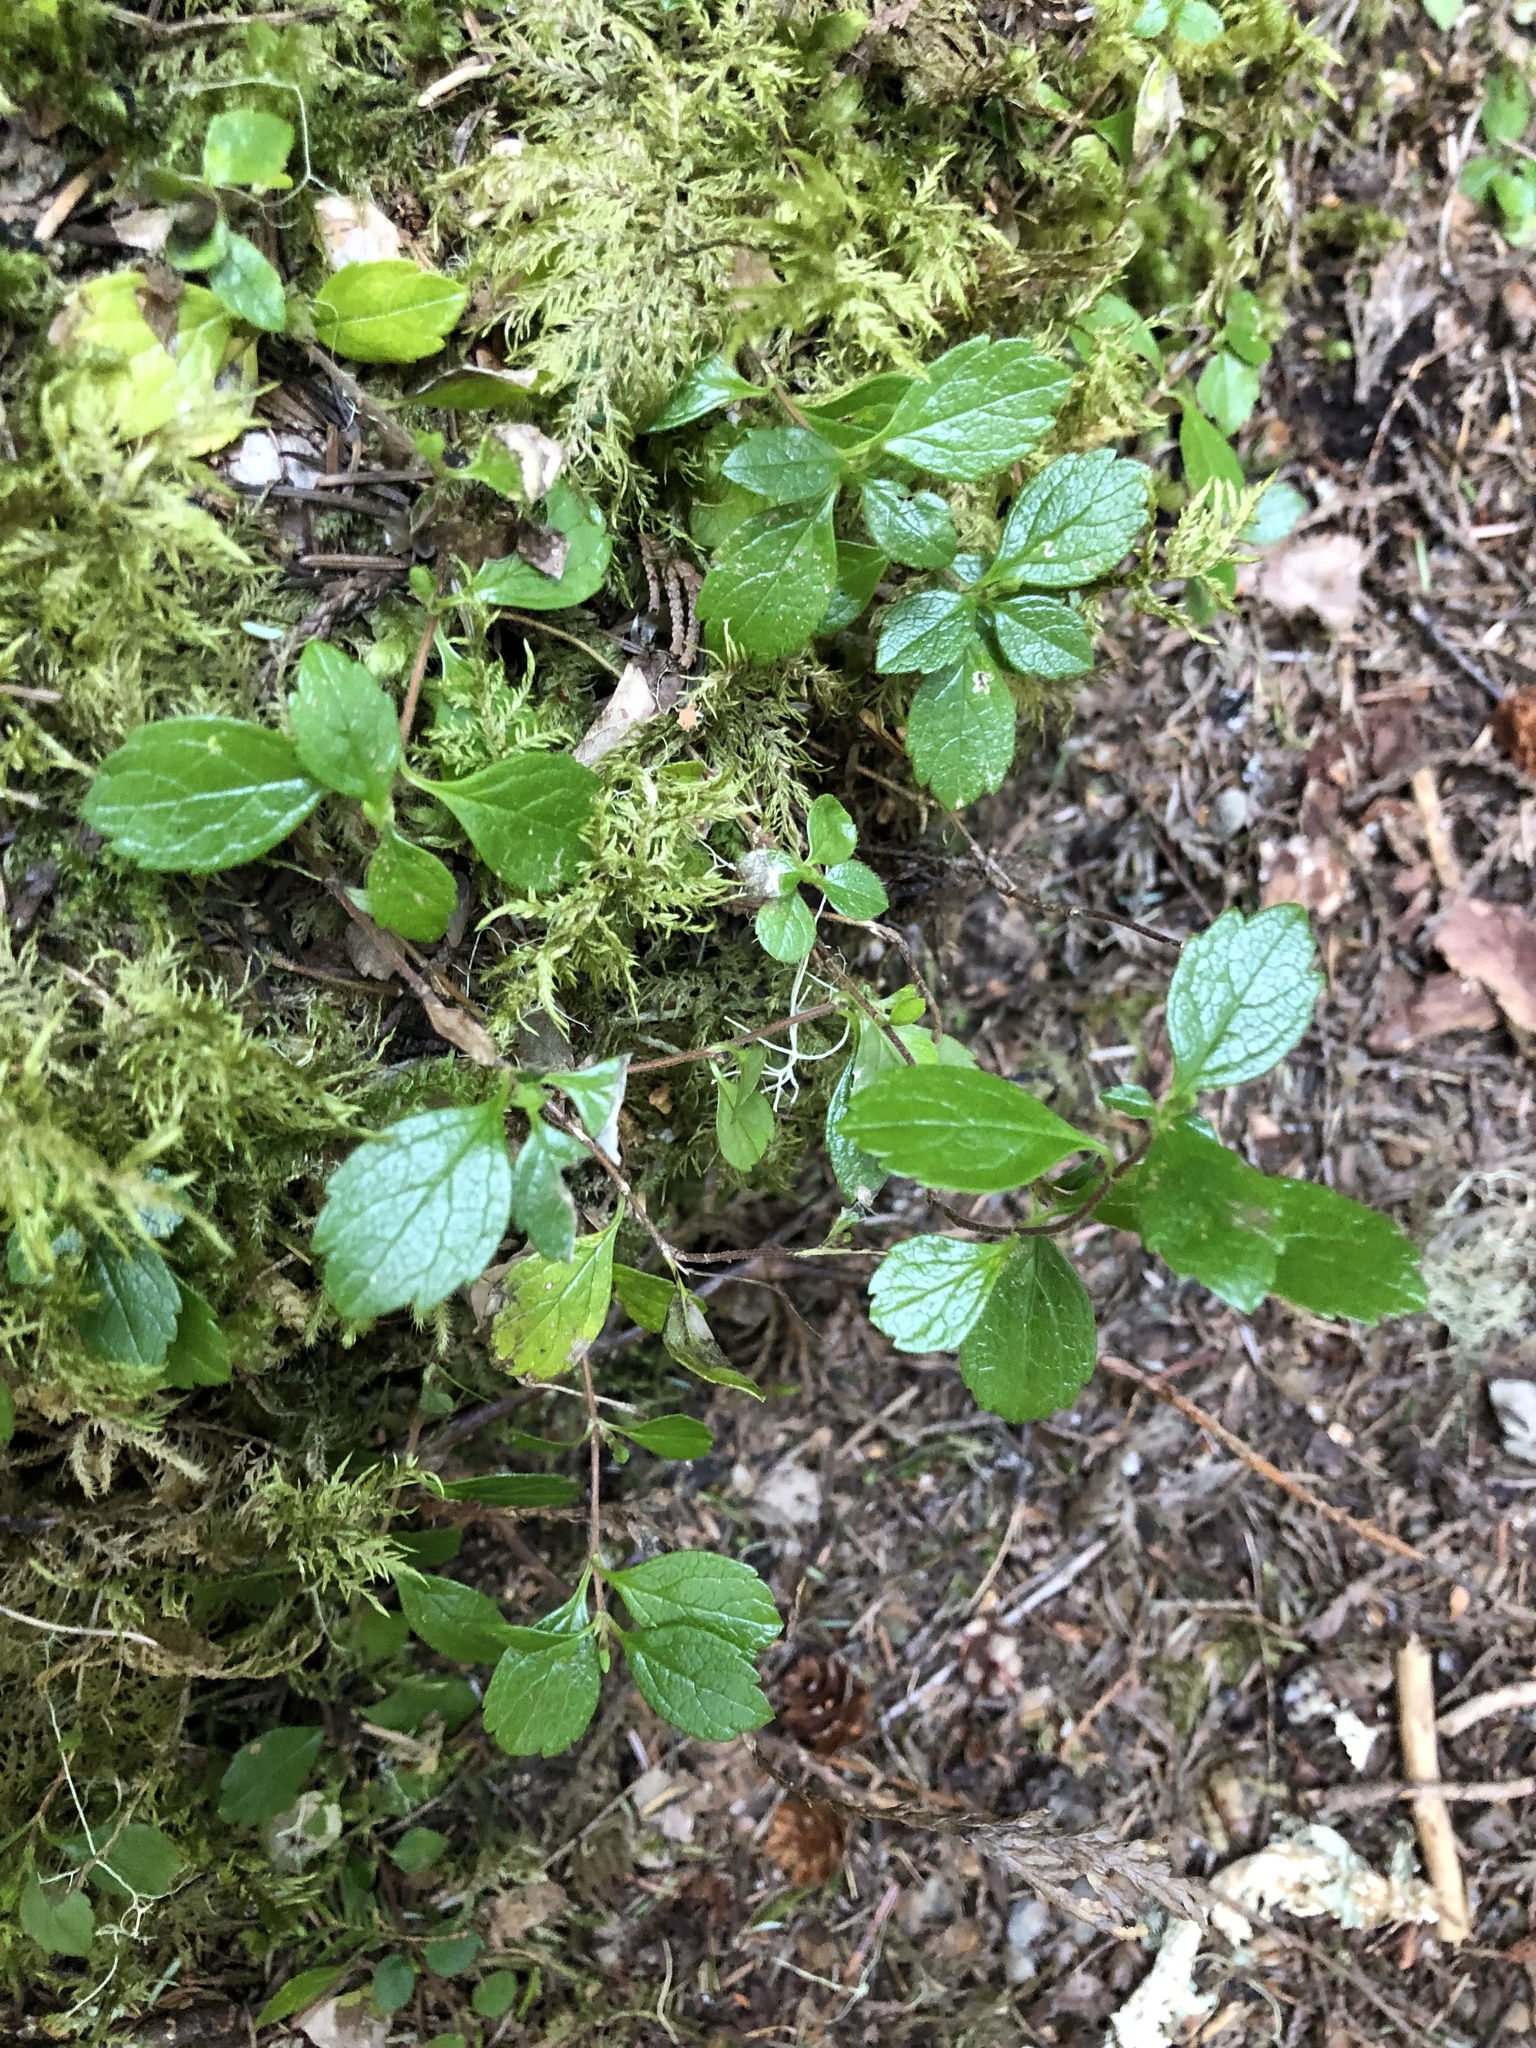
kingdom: Plantae
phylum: Tracheophyta
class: Magnoliopsida
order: Dipsacales
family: Caprifoliaceae
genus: Linnaea
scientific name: Linnaea borealis
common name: Twinflower
